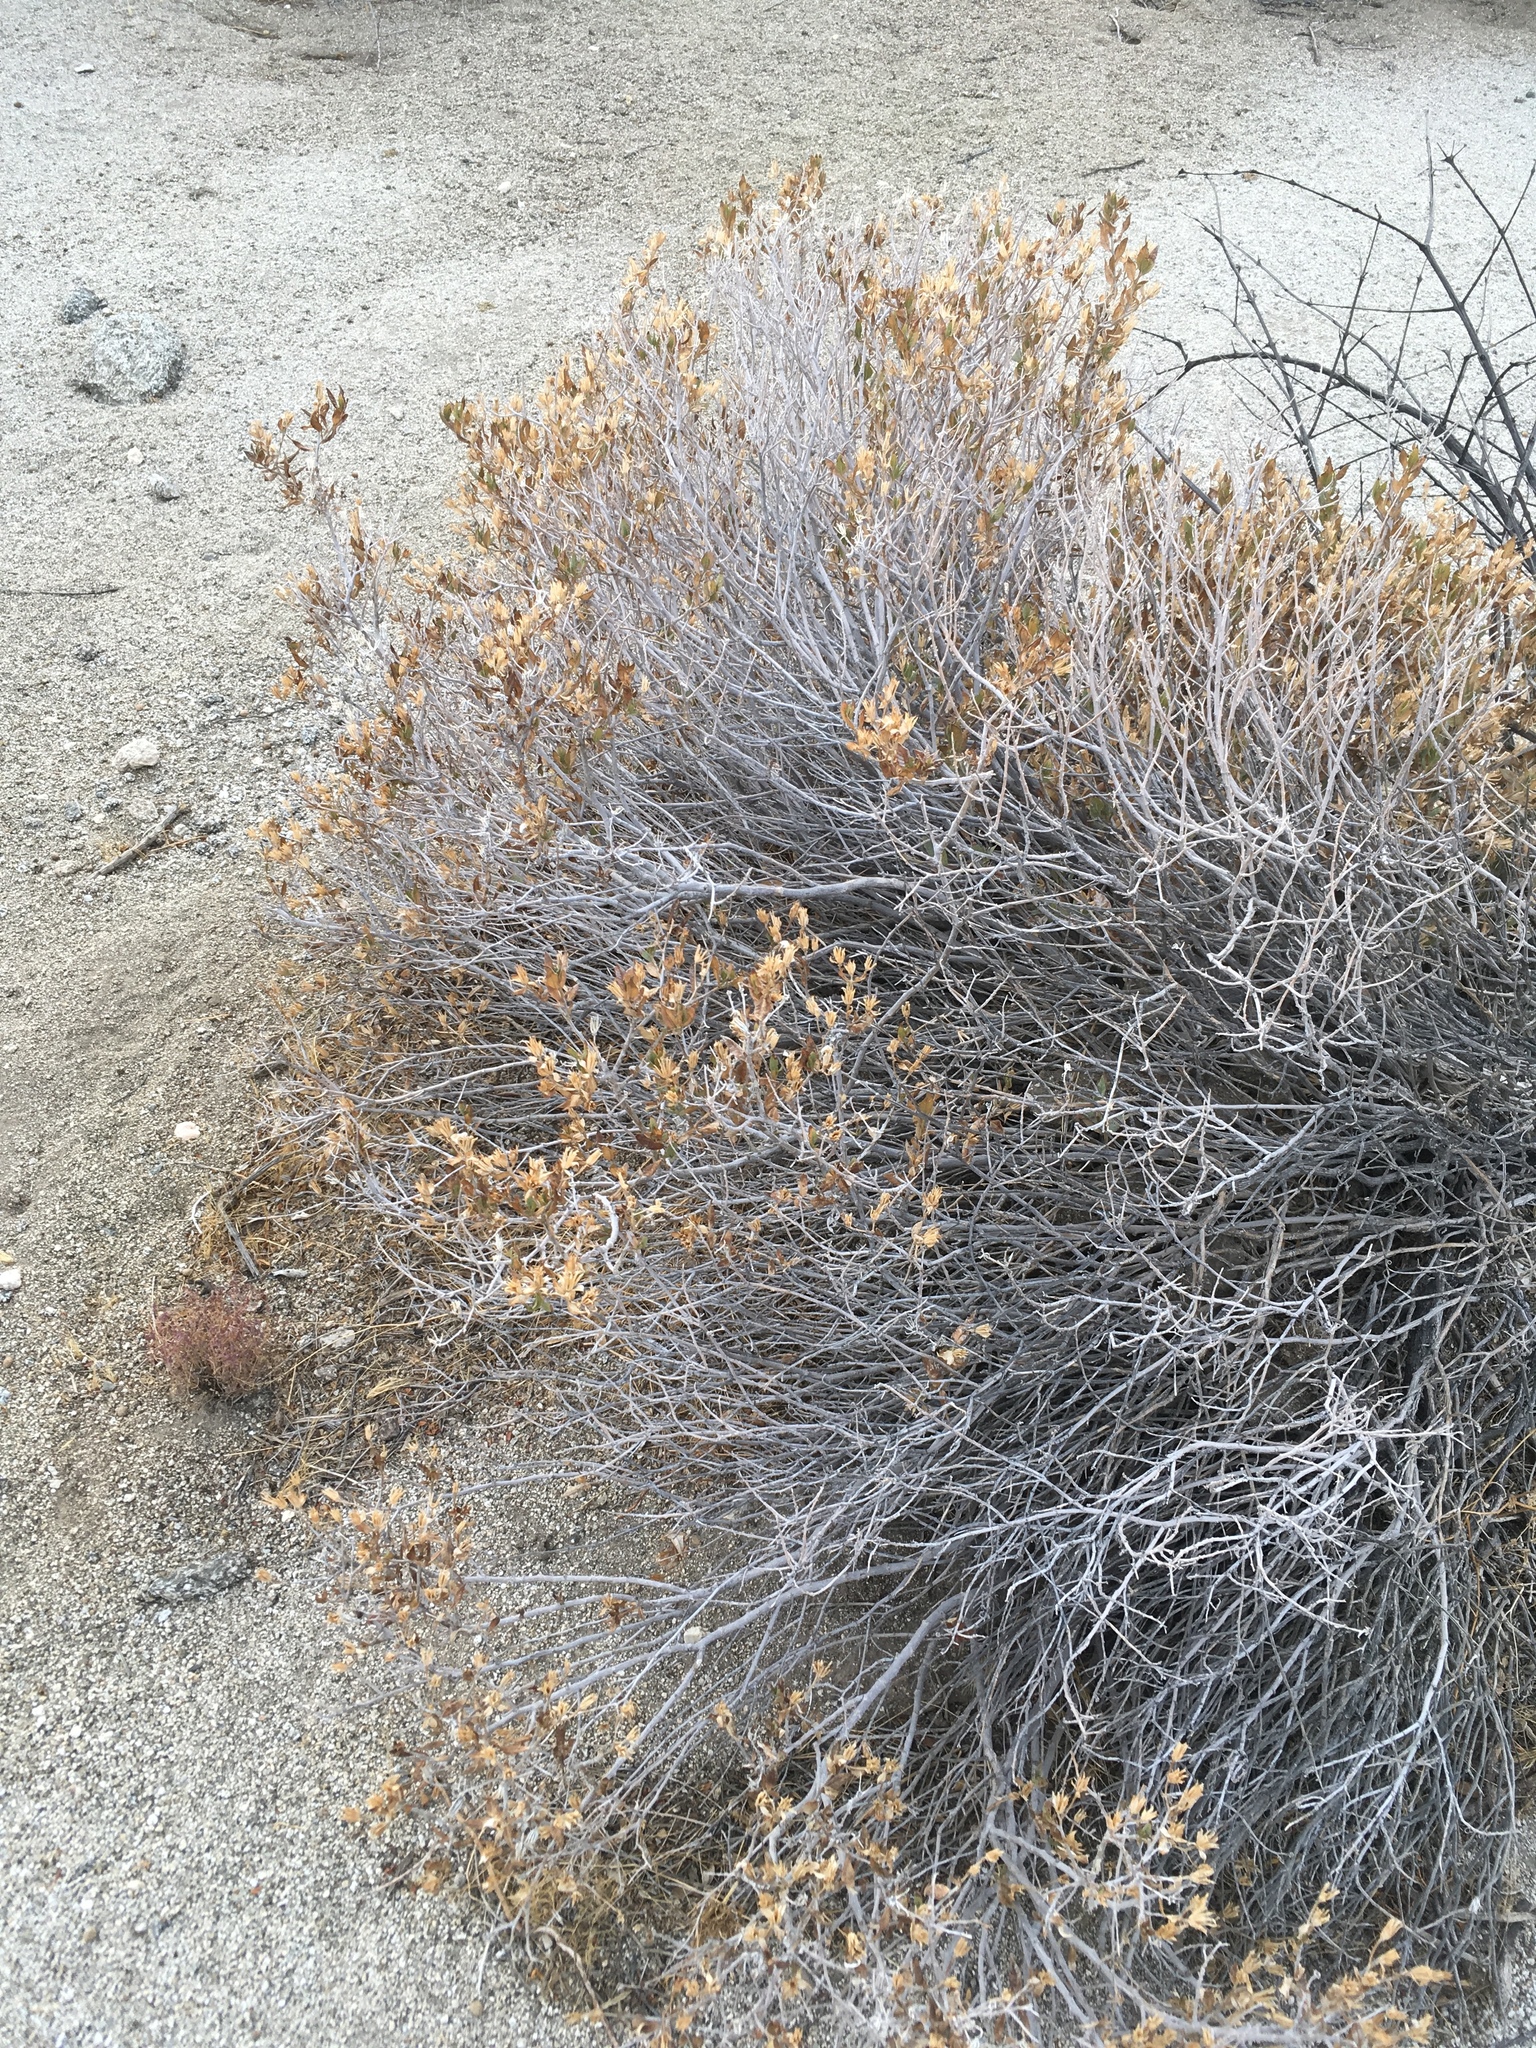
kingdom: Plantae
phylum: Tracheophyta
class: Magnoliopsida
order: Asterales
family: Asteraceae
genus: Trixis
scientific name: Trixis californica
